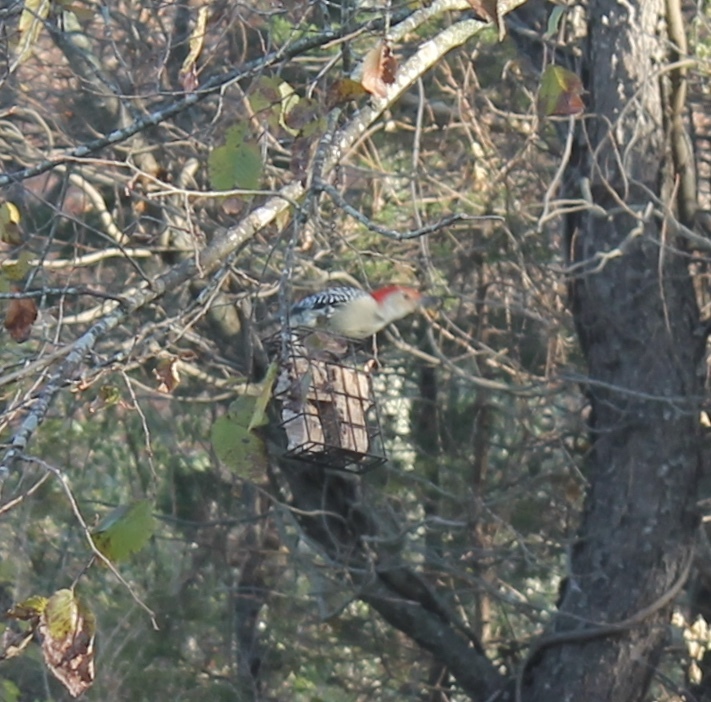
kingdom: Animalia
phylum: Chordata
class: Aves
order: Piciformes
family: Picidae
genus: Melanerpes
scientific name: Melanerpes carolinus
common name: Red-bellied woodpecker
